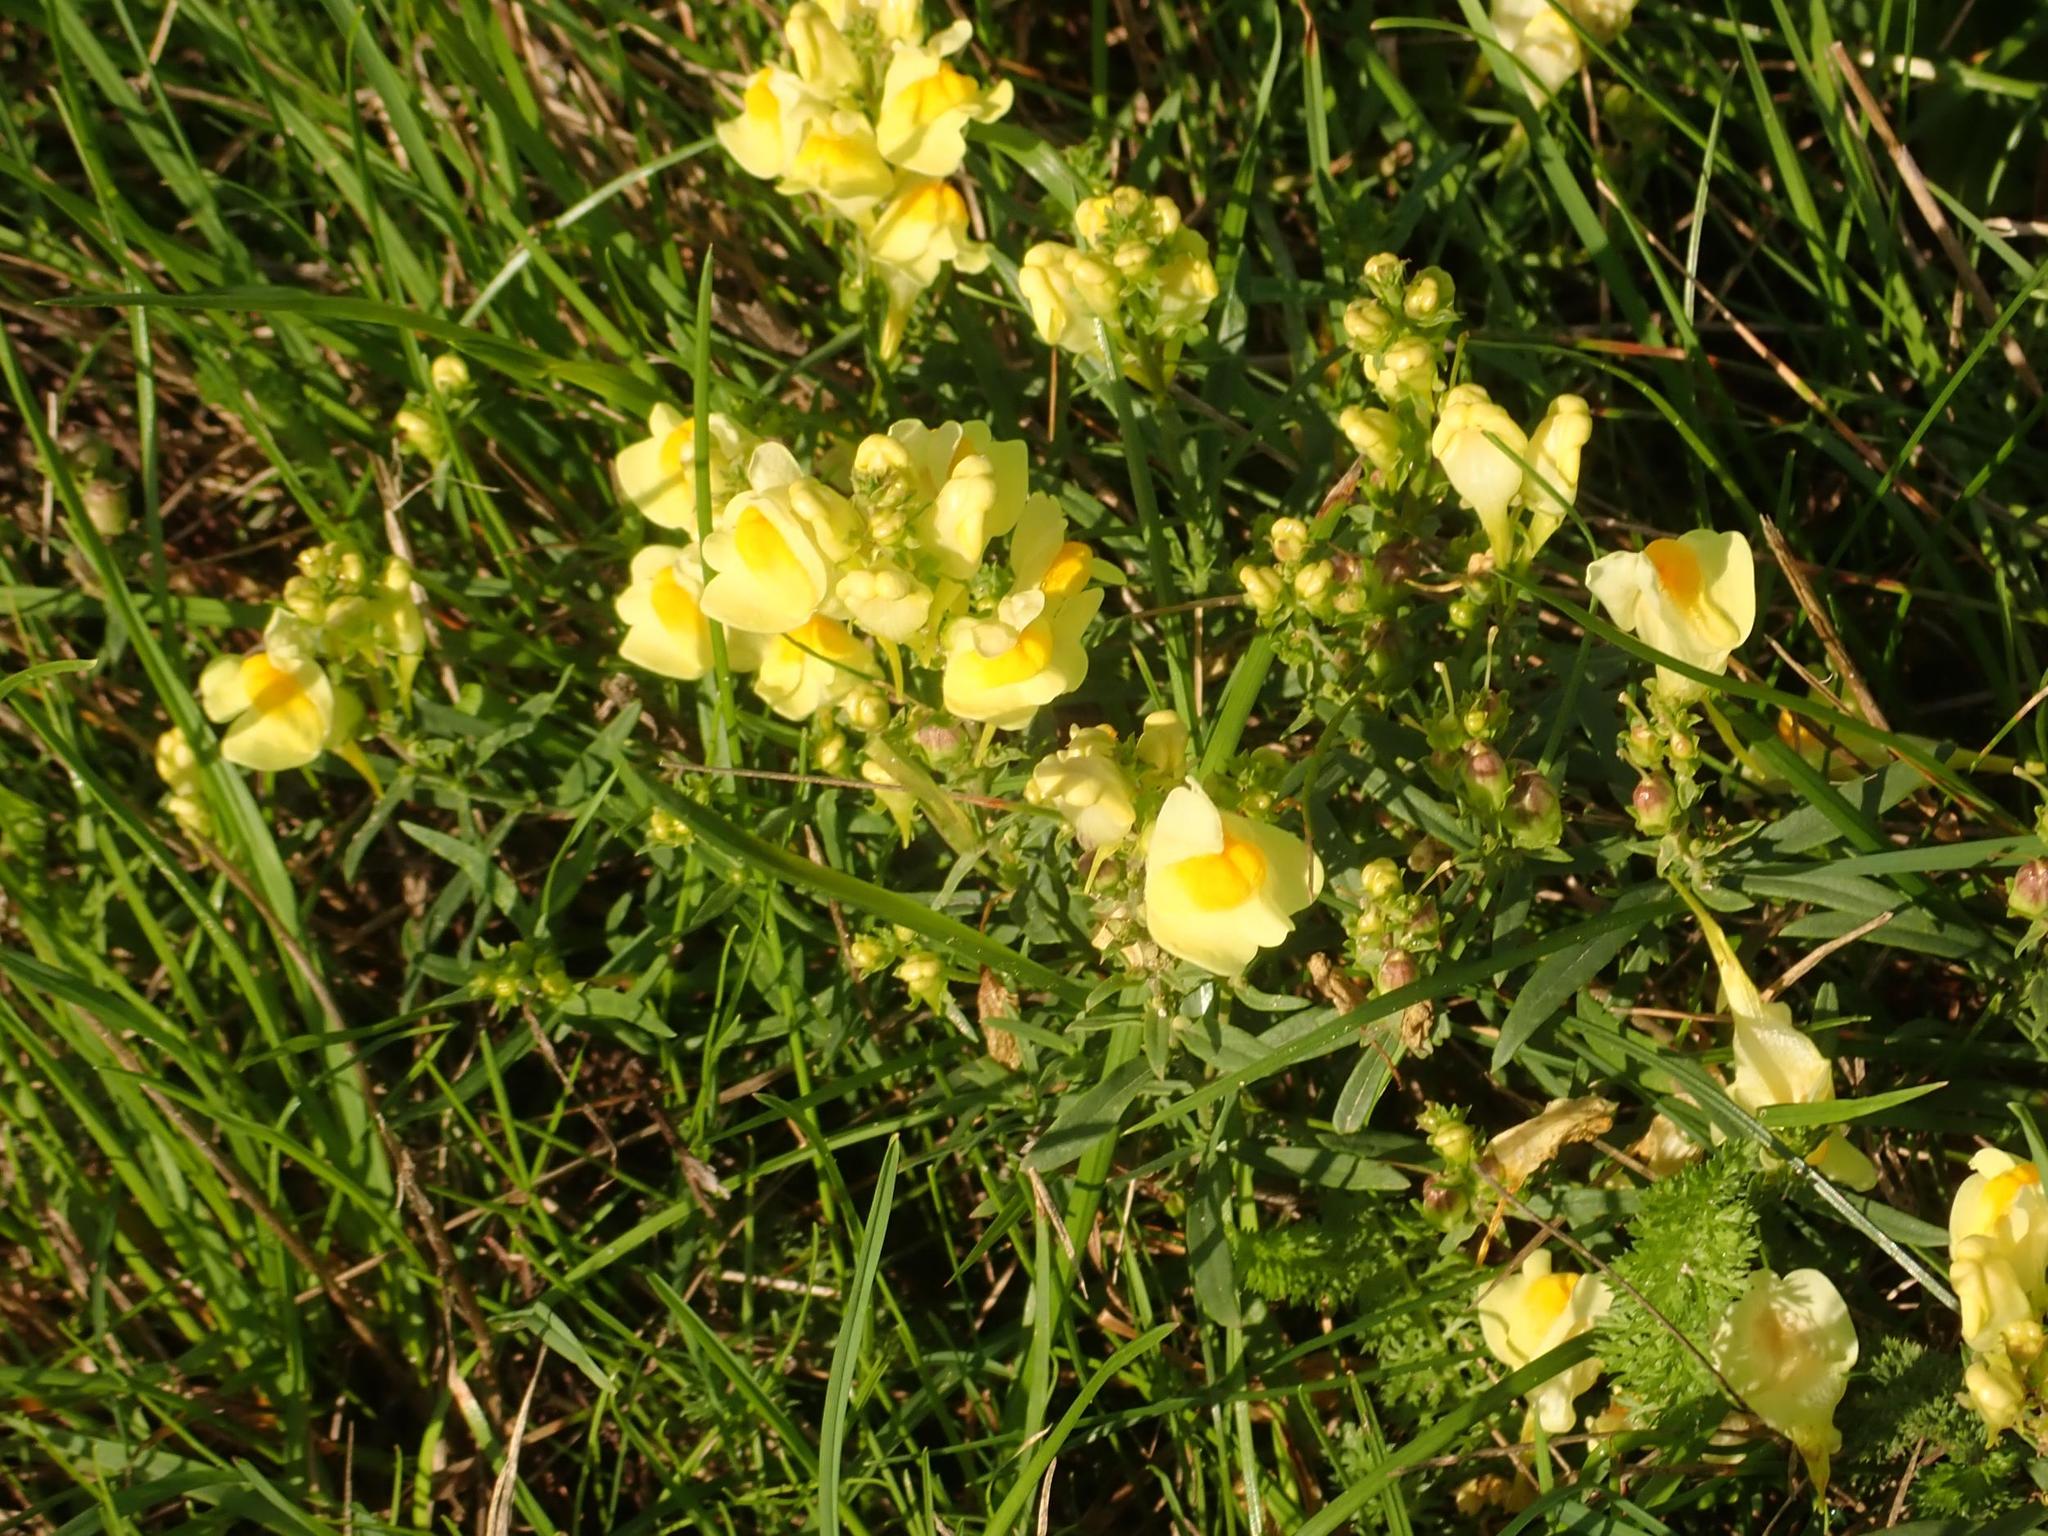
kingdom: Plantae
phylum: Tracheophyta
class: Magnoliopsida
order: Lamiales
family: Plantaginaceae
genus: Linaria
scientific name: Linaria vulgaris
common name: Butter and eggs
